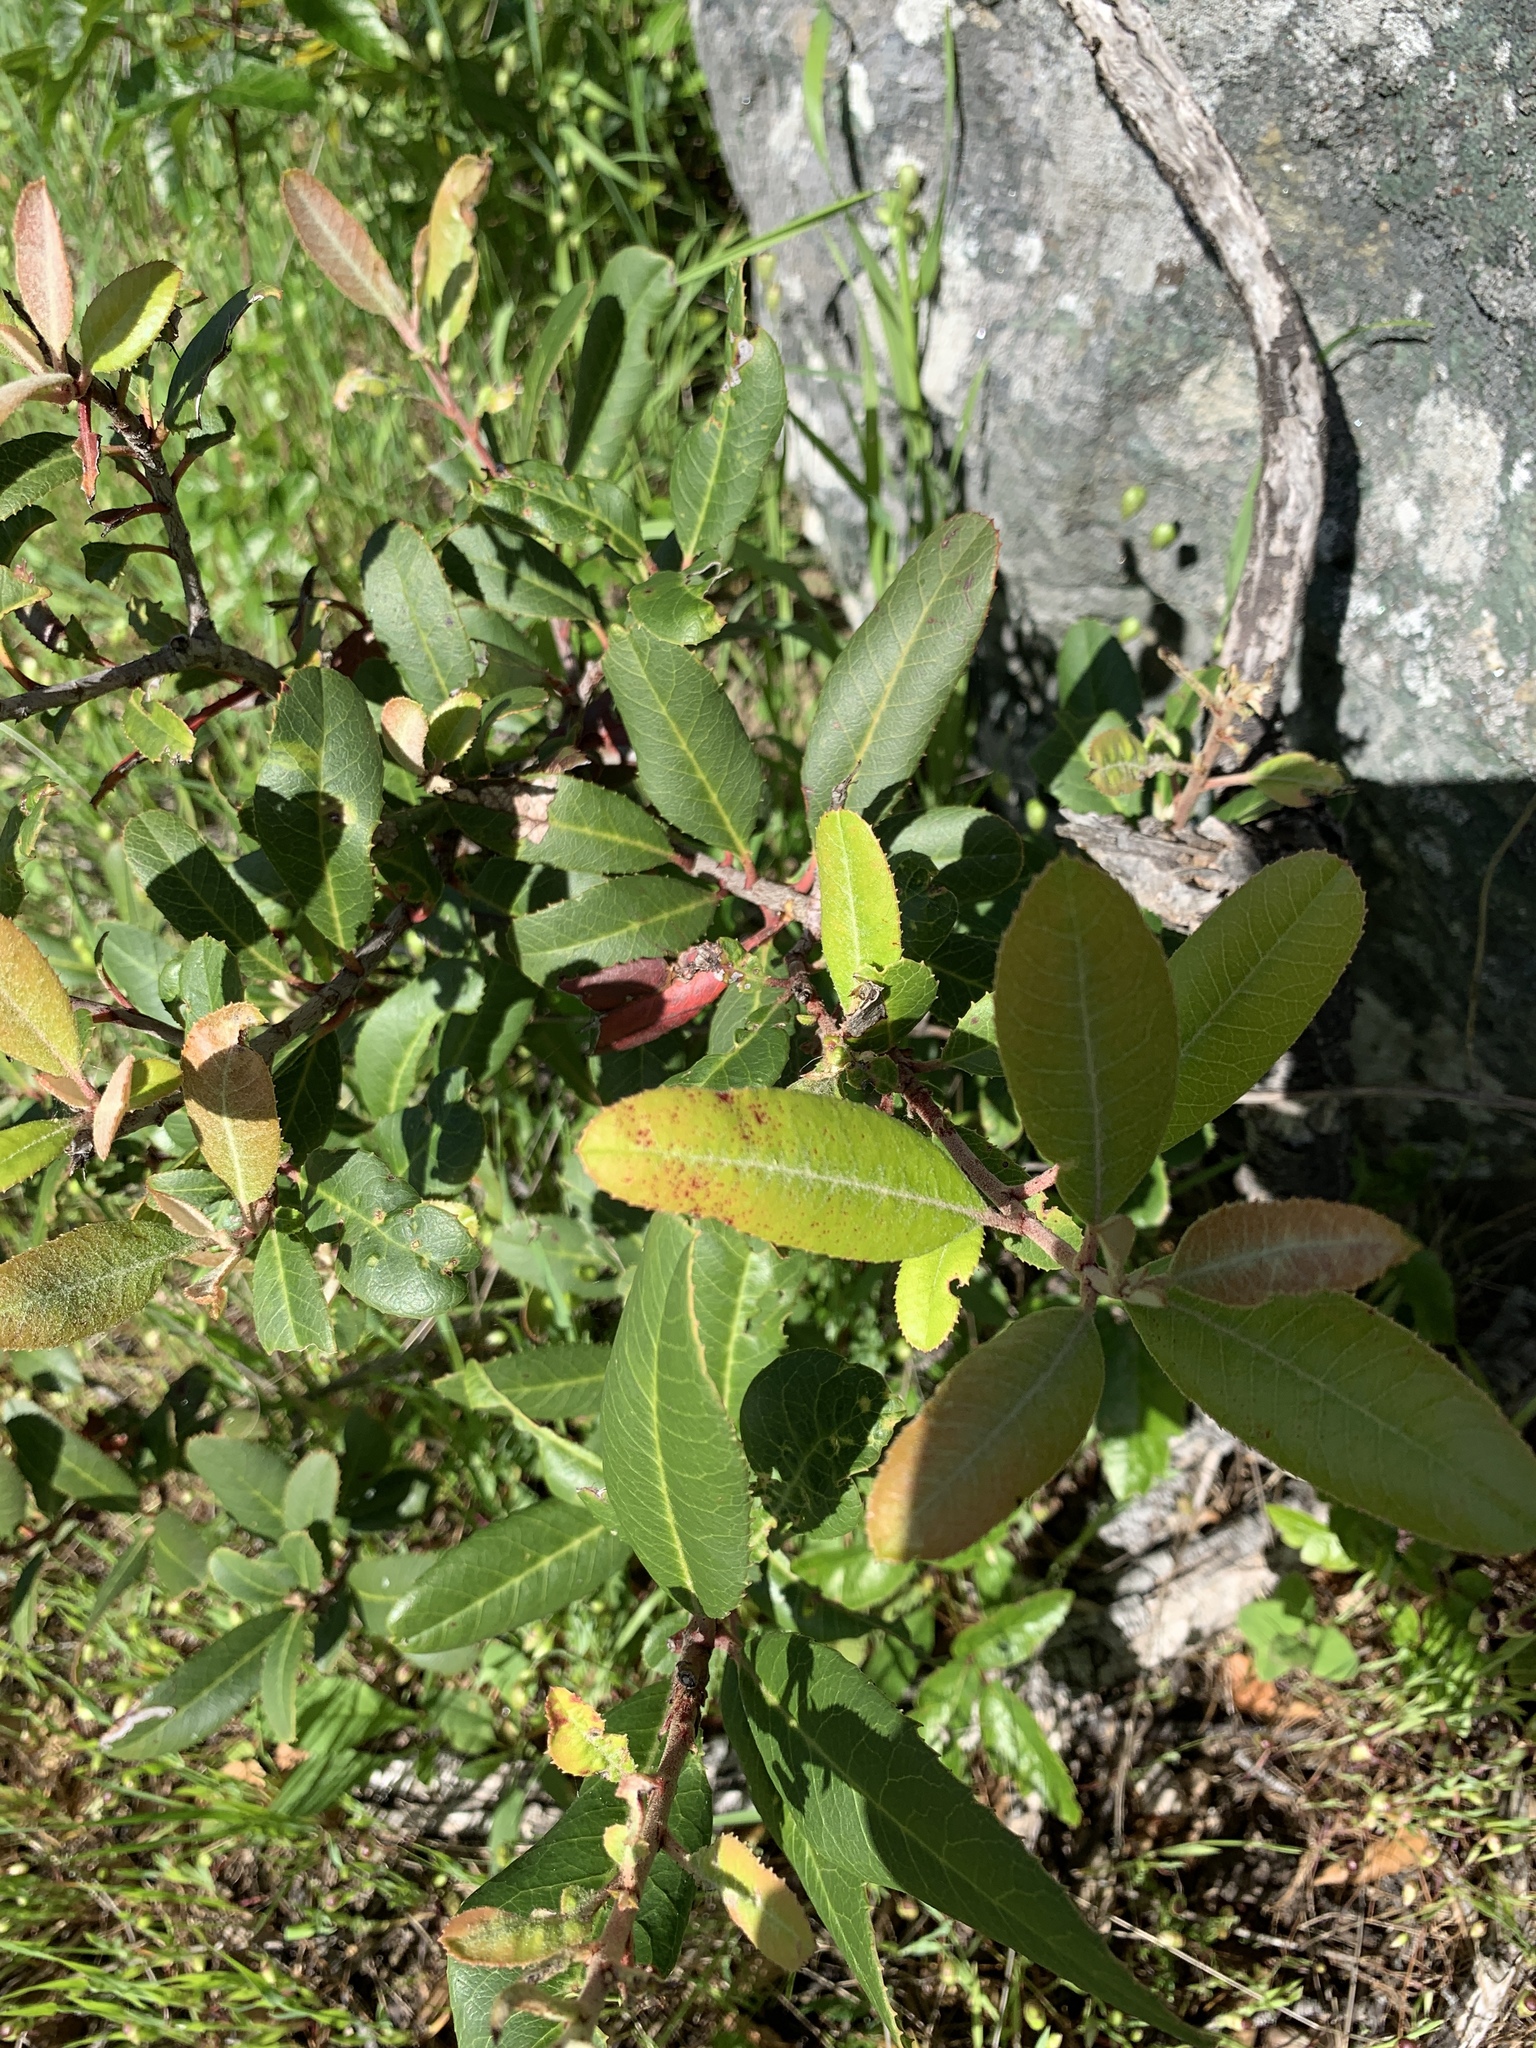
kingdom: Plantae
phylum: Tracheophyta
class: Magnoliopsida
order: Rosales
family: Rosaceae
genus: Heteromeles
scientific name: Heteromeles arbutifolia
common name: California-holly
